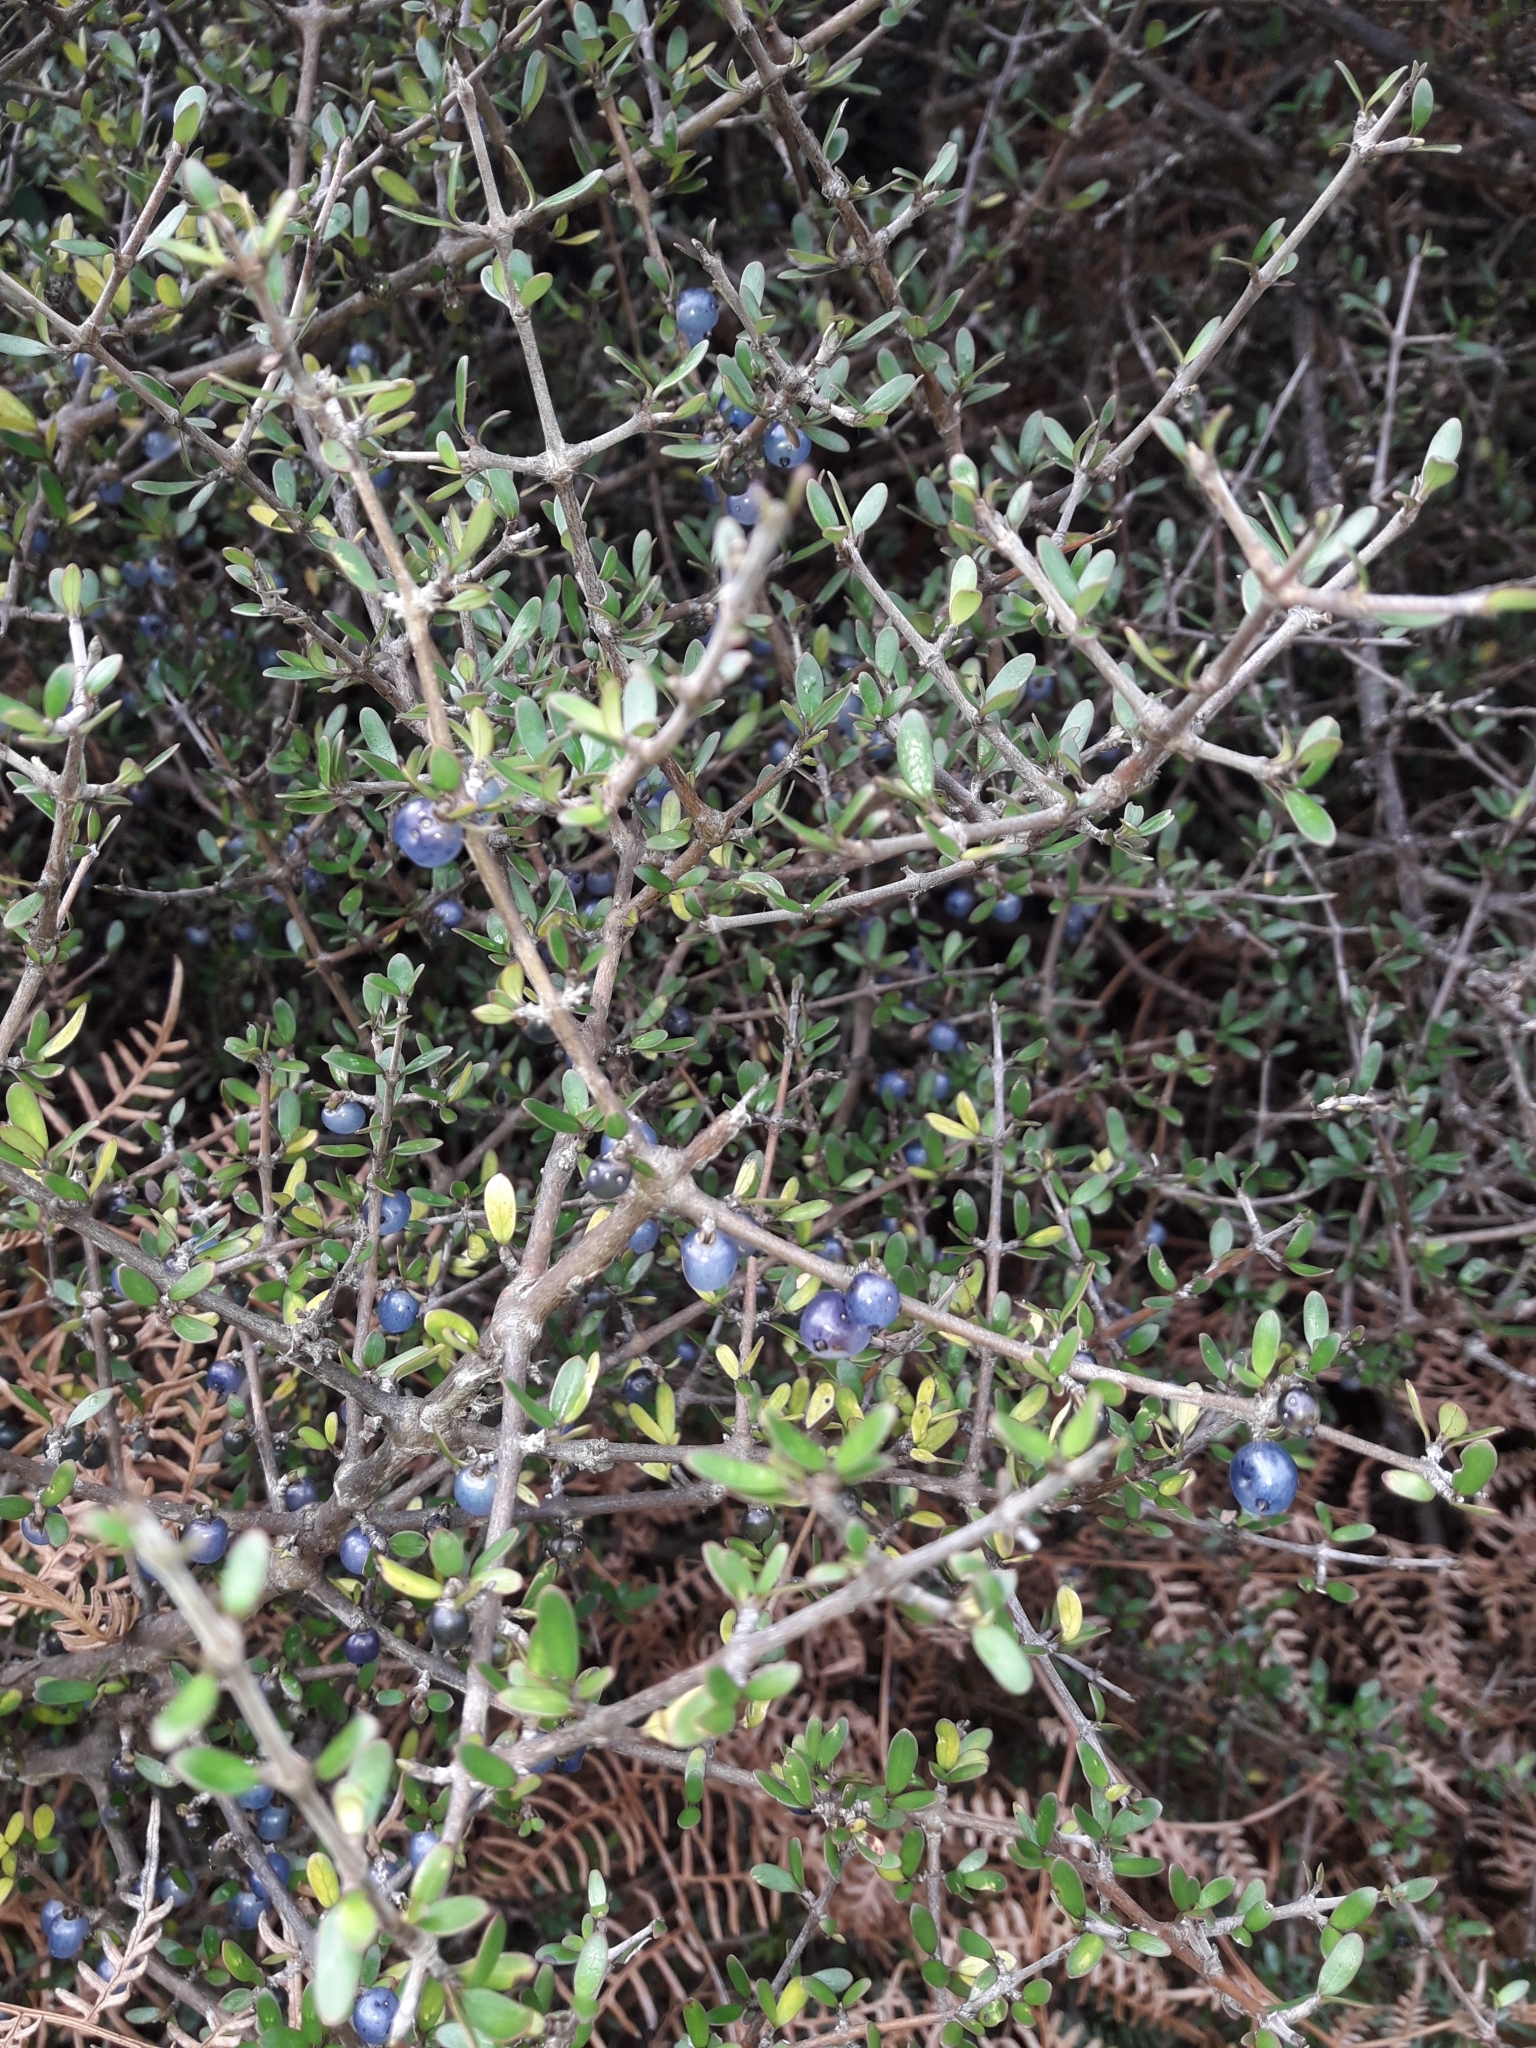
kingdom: Plantae
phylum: Tracheophyta
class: Magnoliopsida
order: Gentianales
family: Rubiaceae
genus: Coprosma
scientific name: Coprosma propinqua
